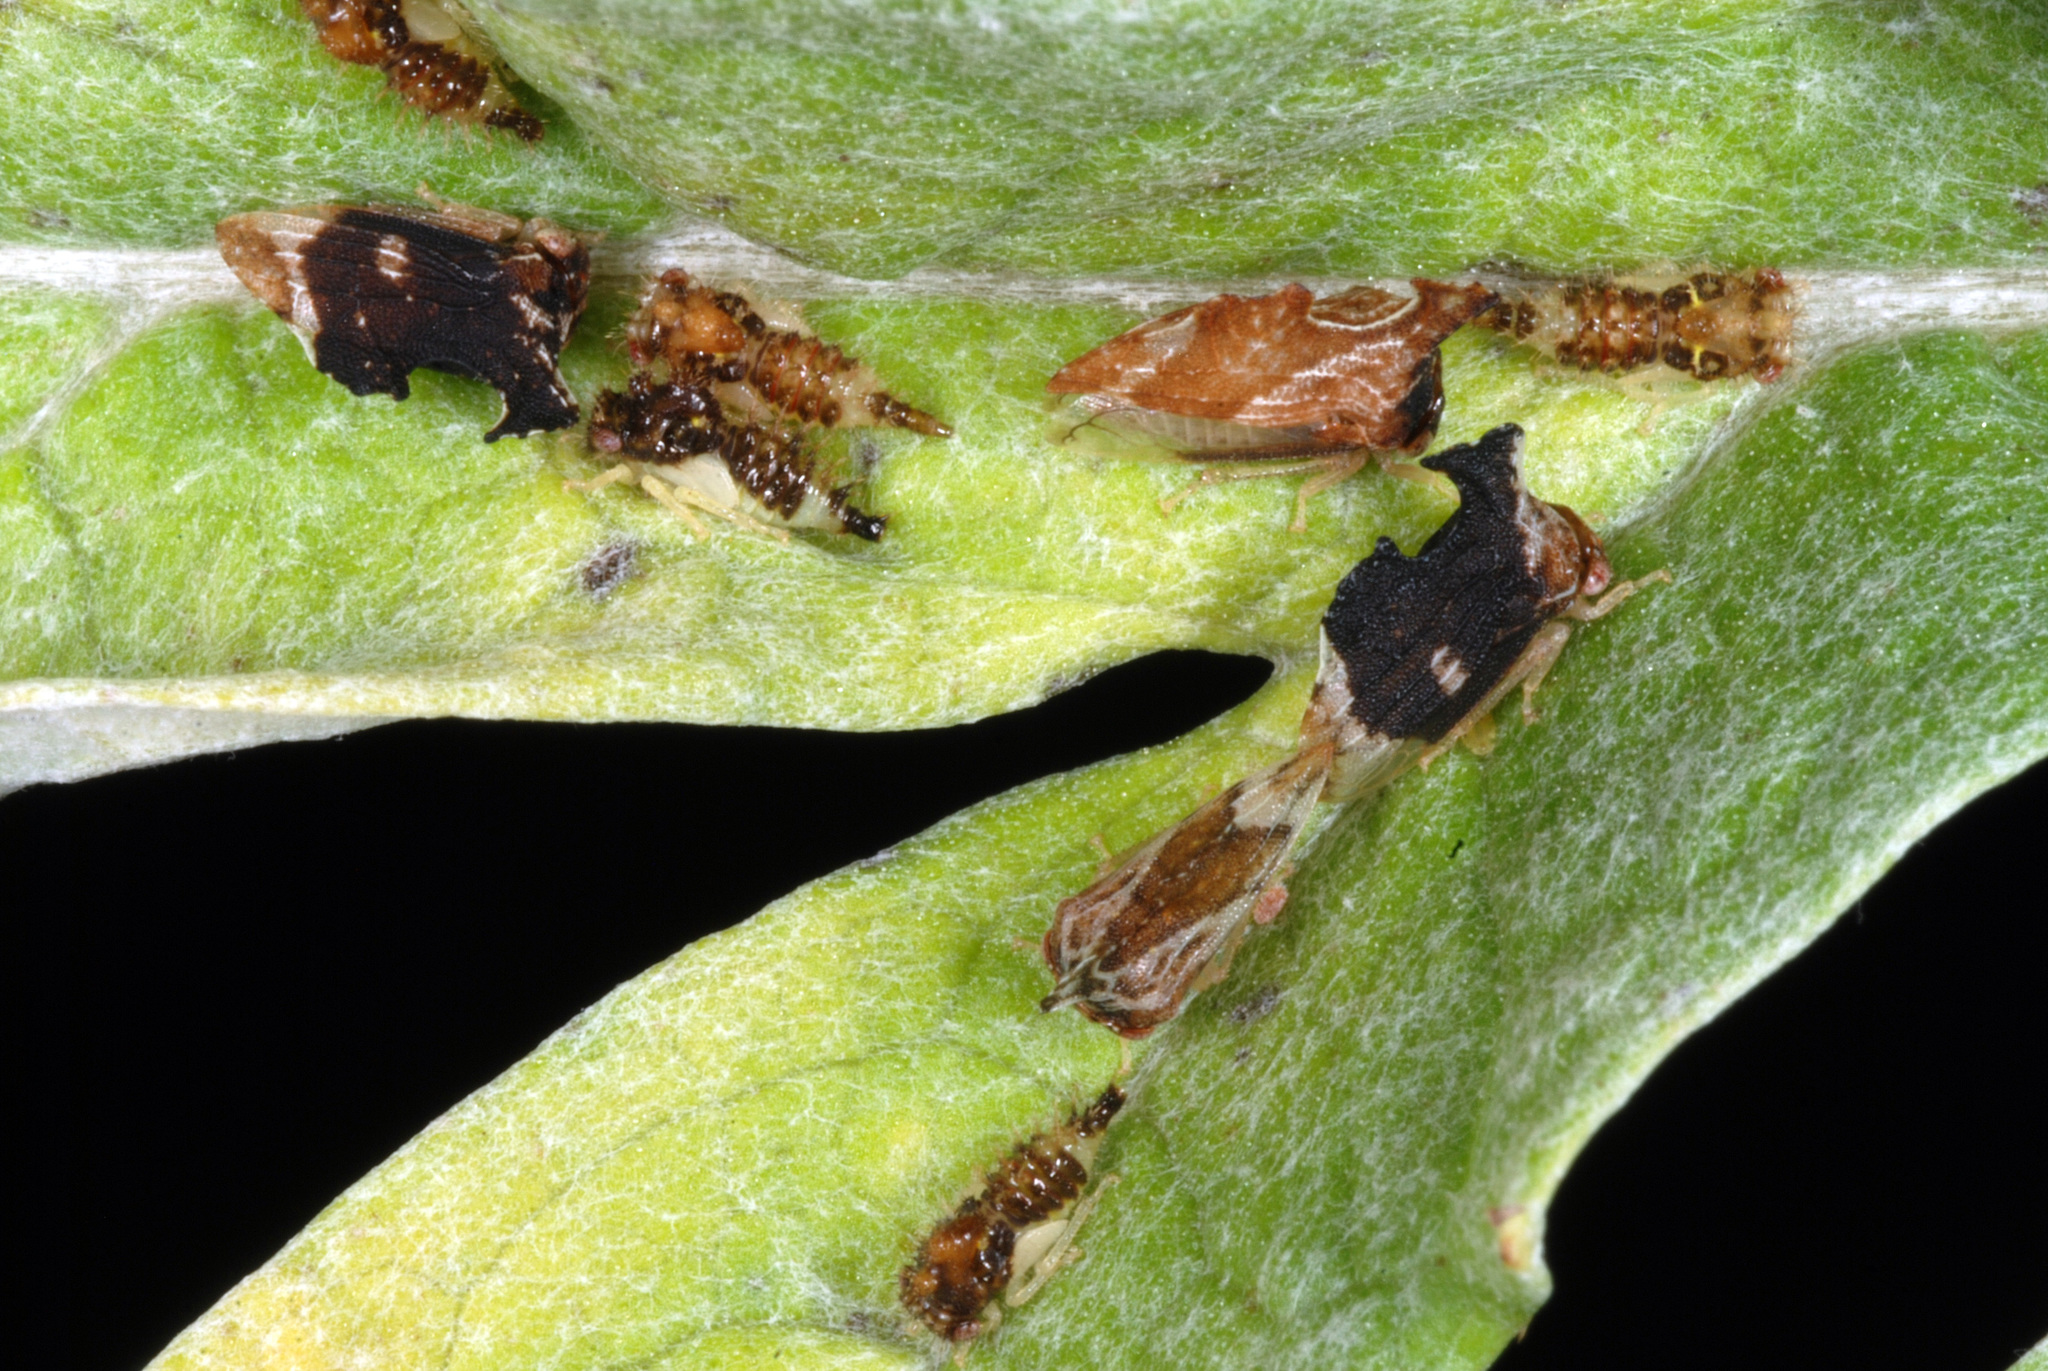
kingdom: Animalia
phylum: Arthropoda
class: Insecta
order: Hemiptera
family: Membracidae
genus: Entylia
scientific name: Entylia carinata
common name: Keeled treehopper
